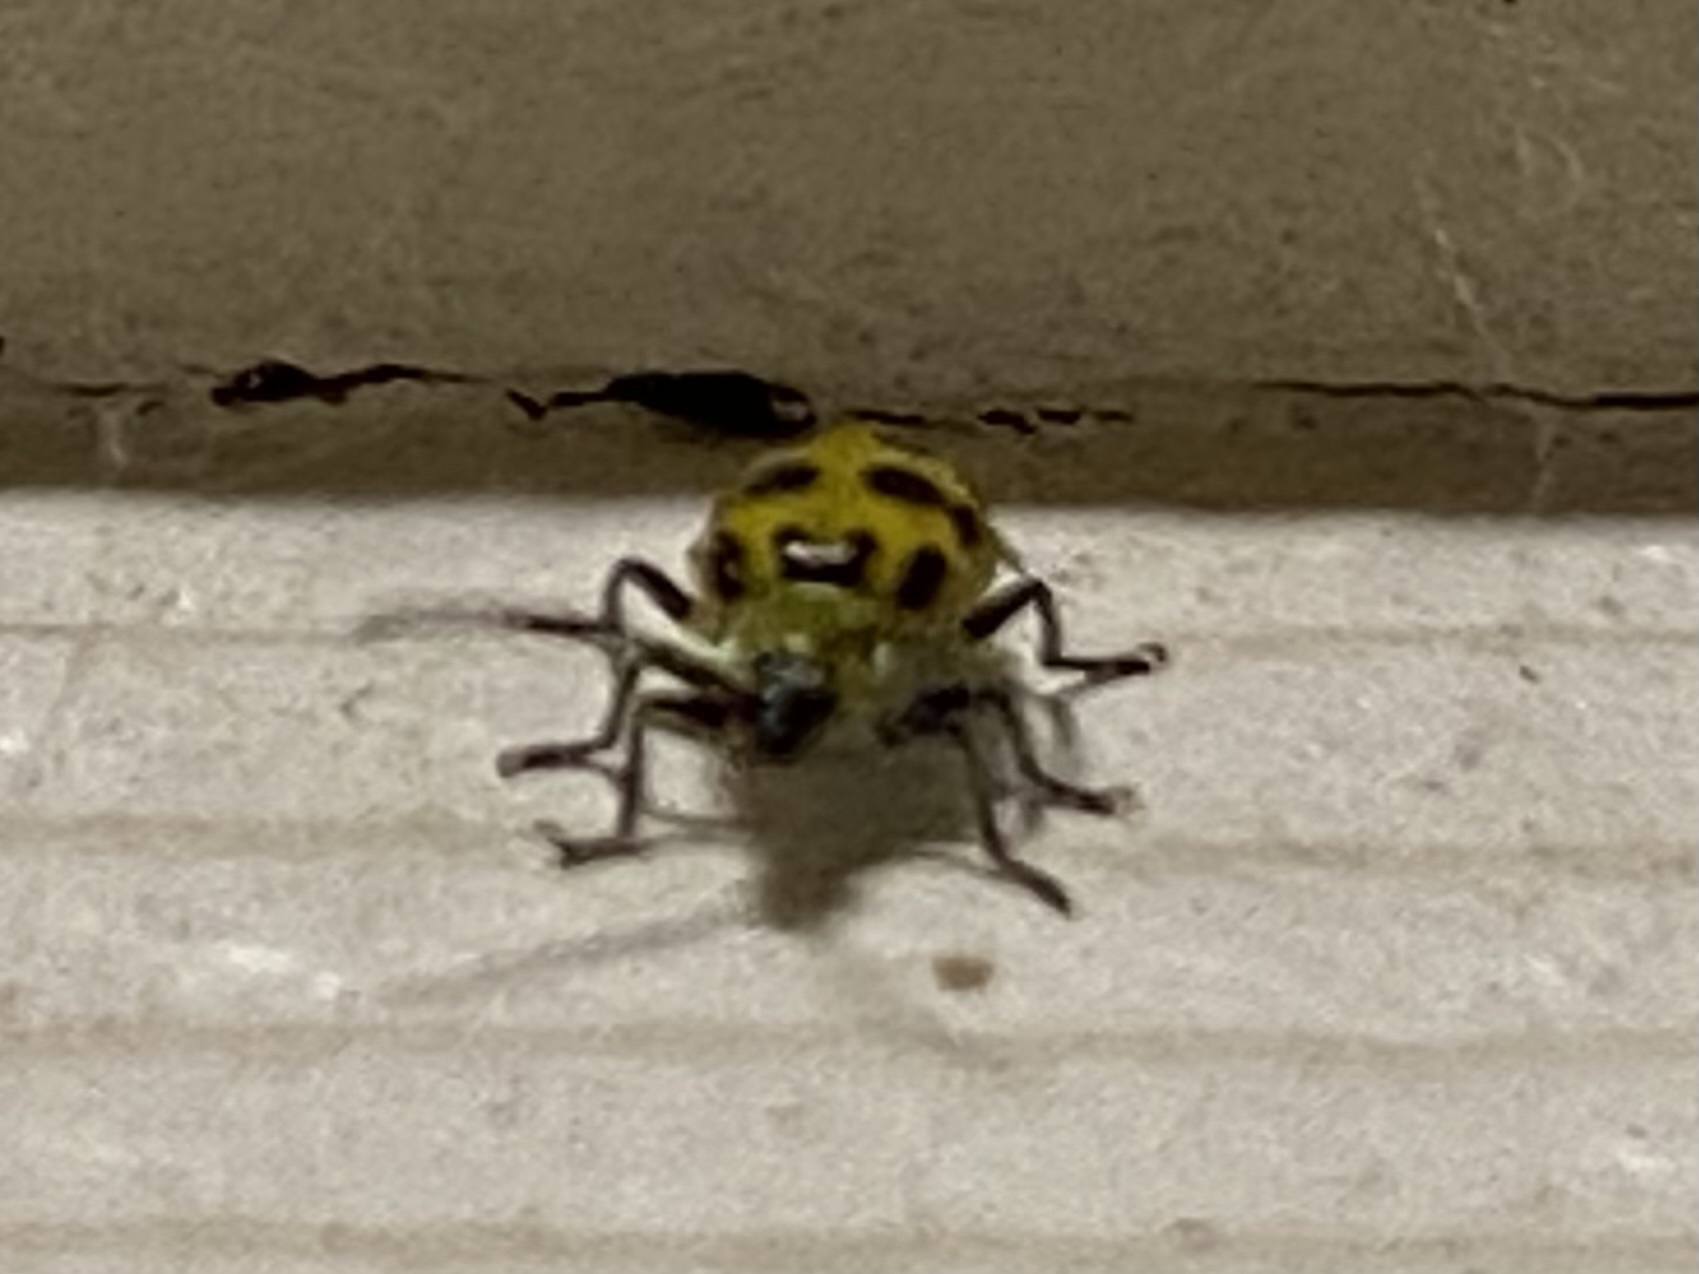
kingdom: Animalia
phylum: Arthropoda
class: Insecta
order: Coleoptera
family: Chrysomelidae
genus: Diabrotica
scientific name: Diabrotica undecimpunctata
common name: Spotted cucumber beetle
